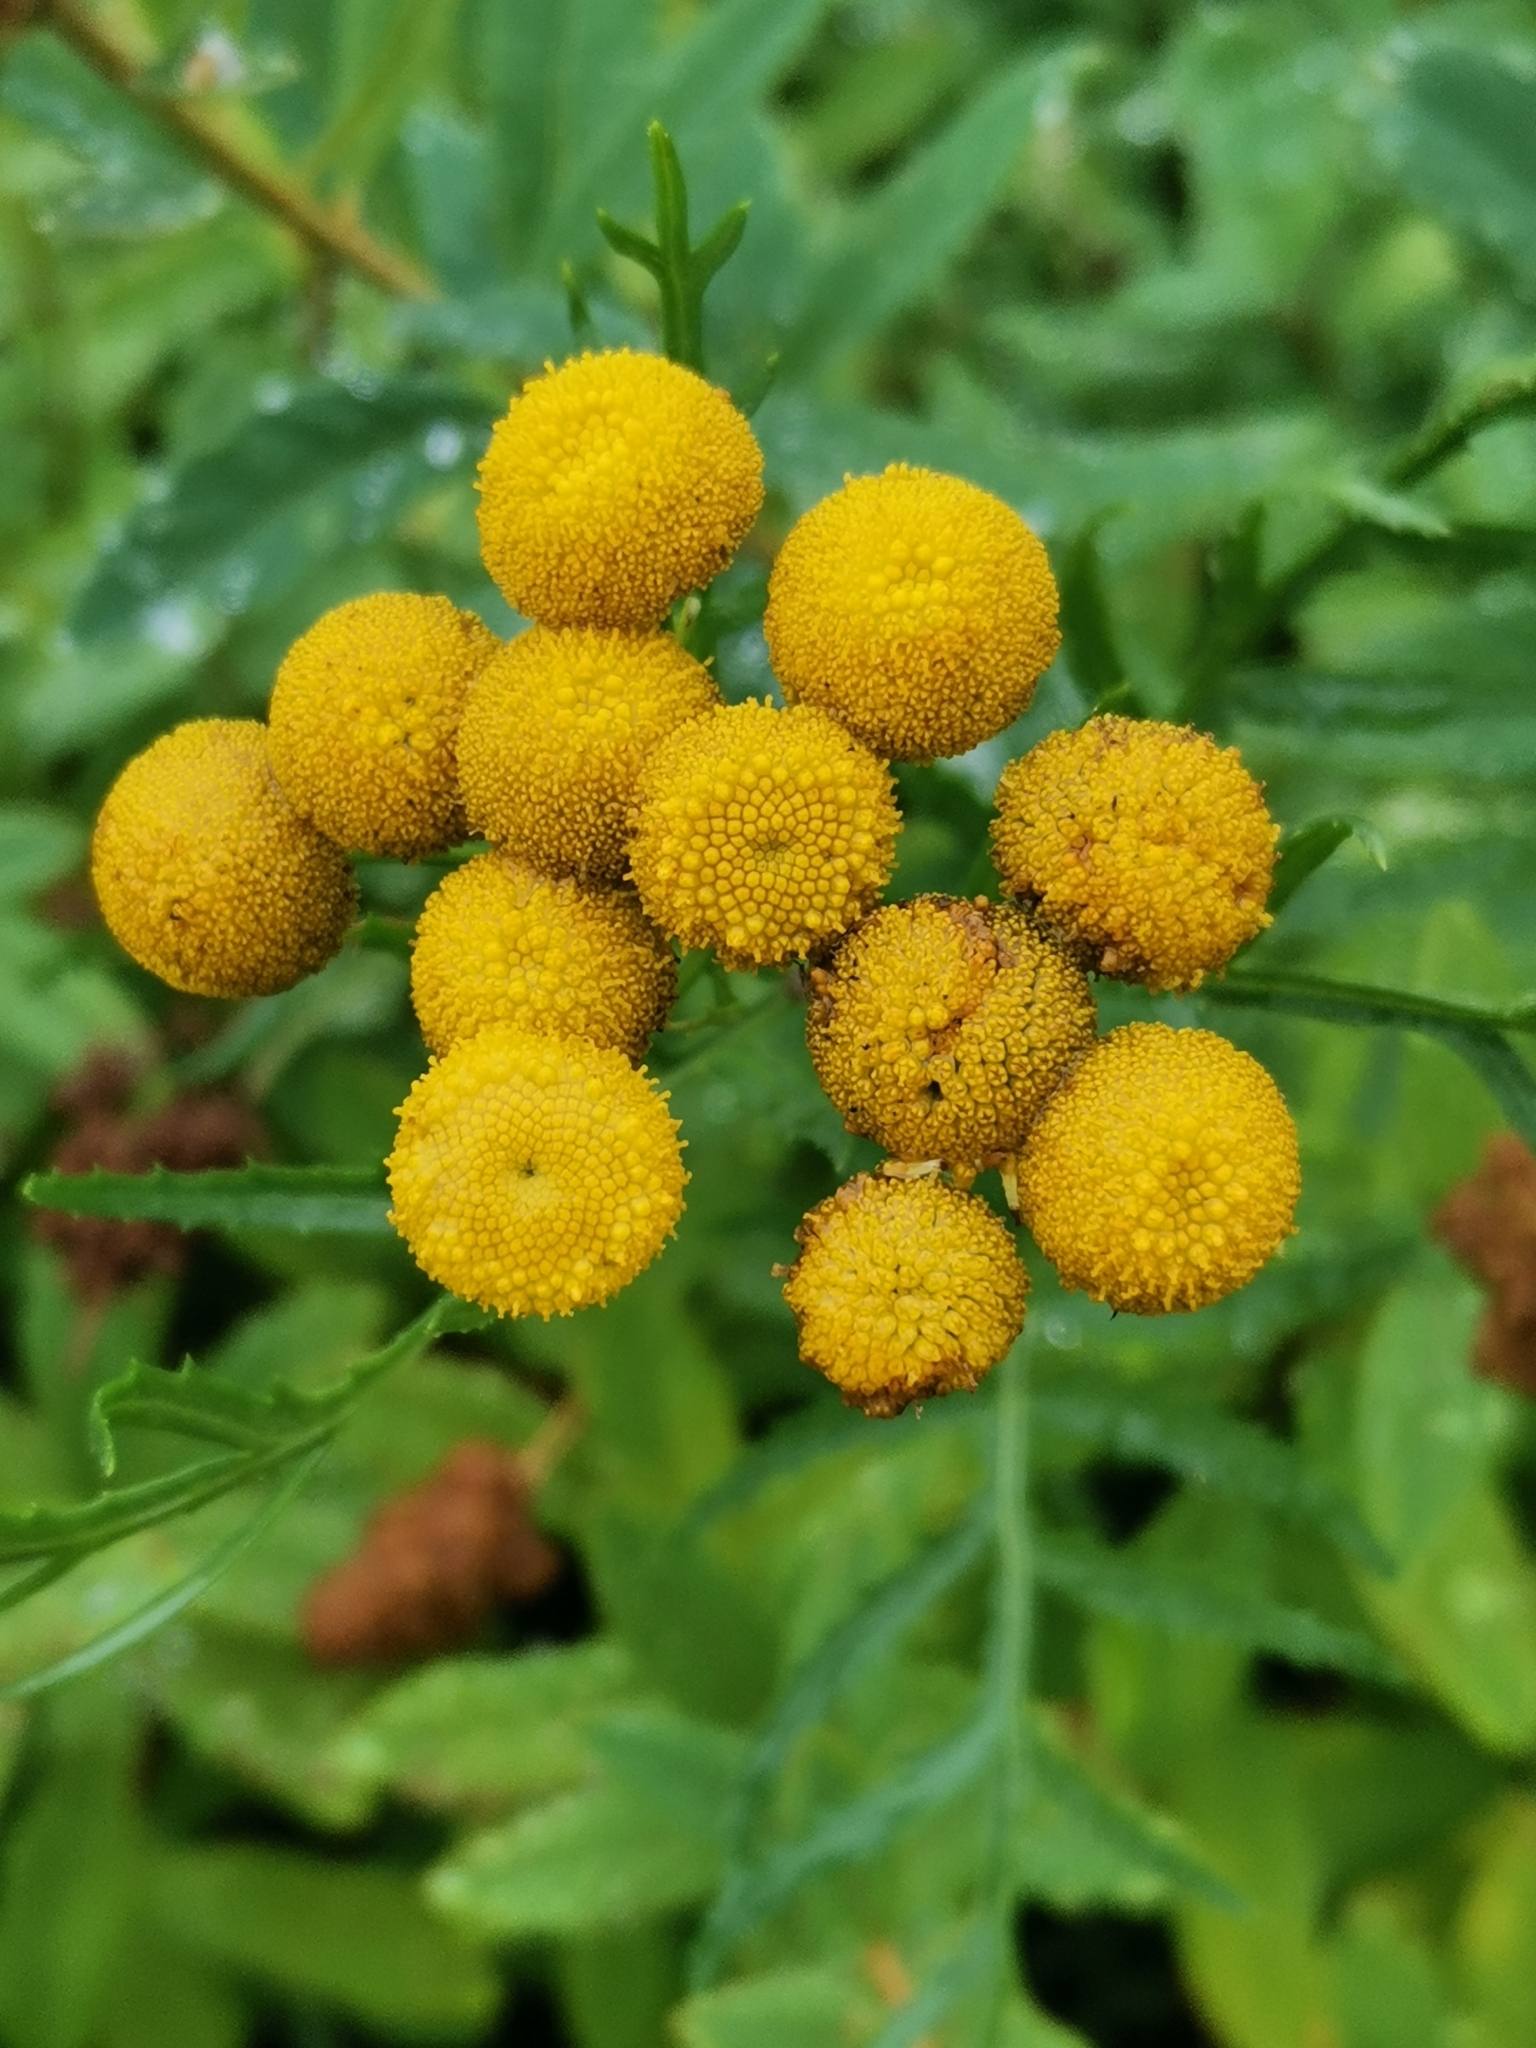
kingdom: Plantae
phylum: Tracheophyta
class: Magnoliopsida
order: Asterales
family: Asteraceae
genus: Tanacetum
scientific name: Tanacetum vulgare
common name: Common tansy
